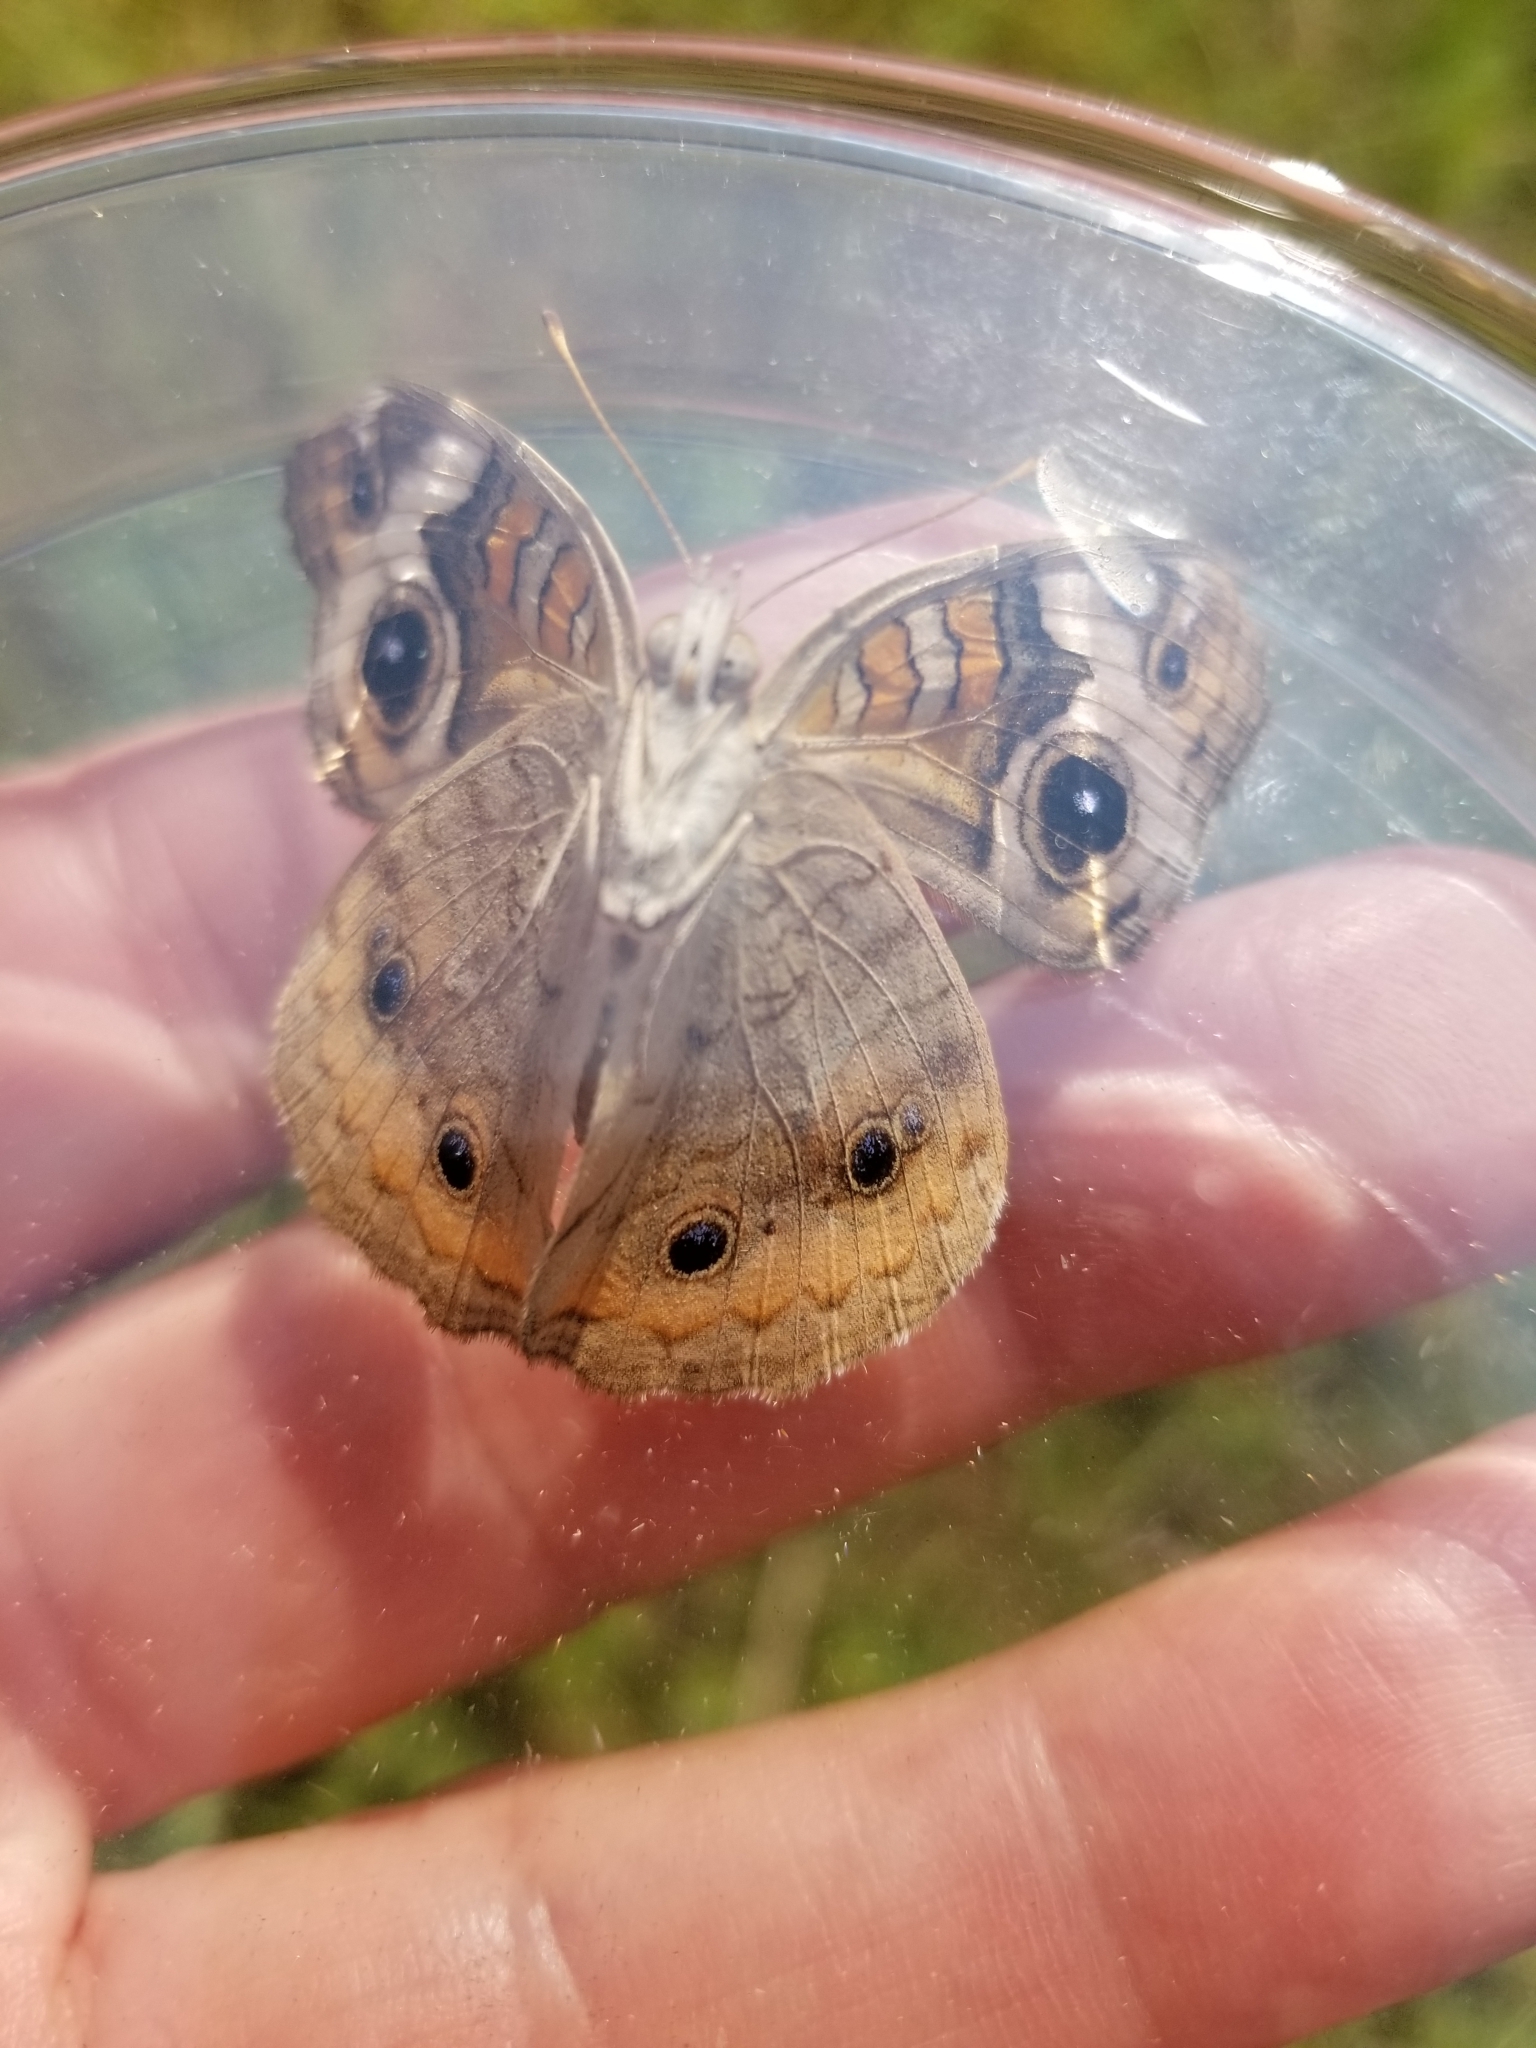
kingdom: Animalia
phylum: Arthropoda
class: Insecta
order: Lepidoptera
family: Nymphalidae
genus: Junonia
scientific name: Junonia coenia
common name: Common buckeye
